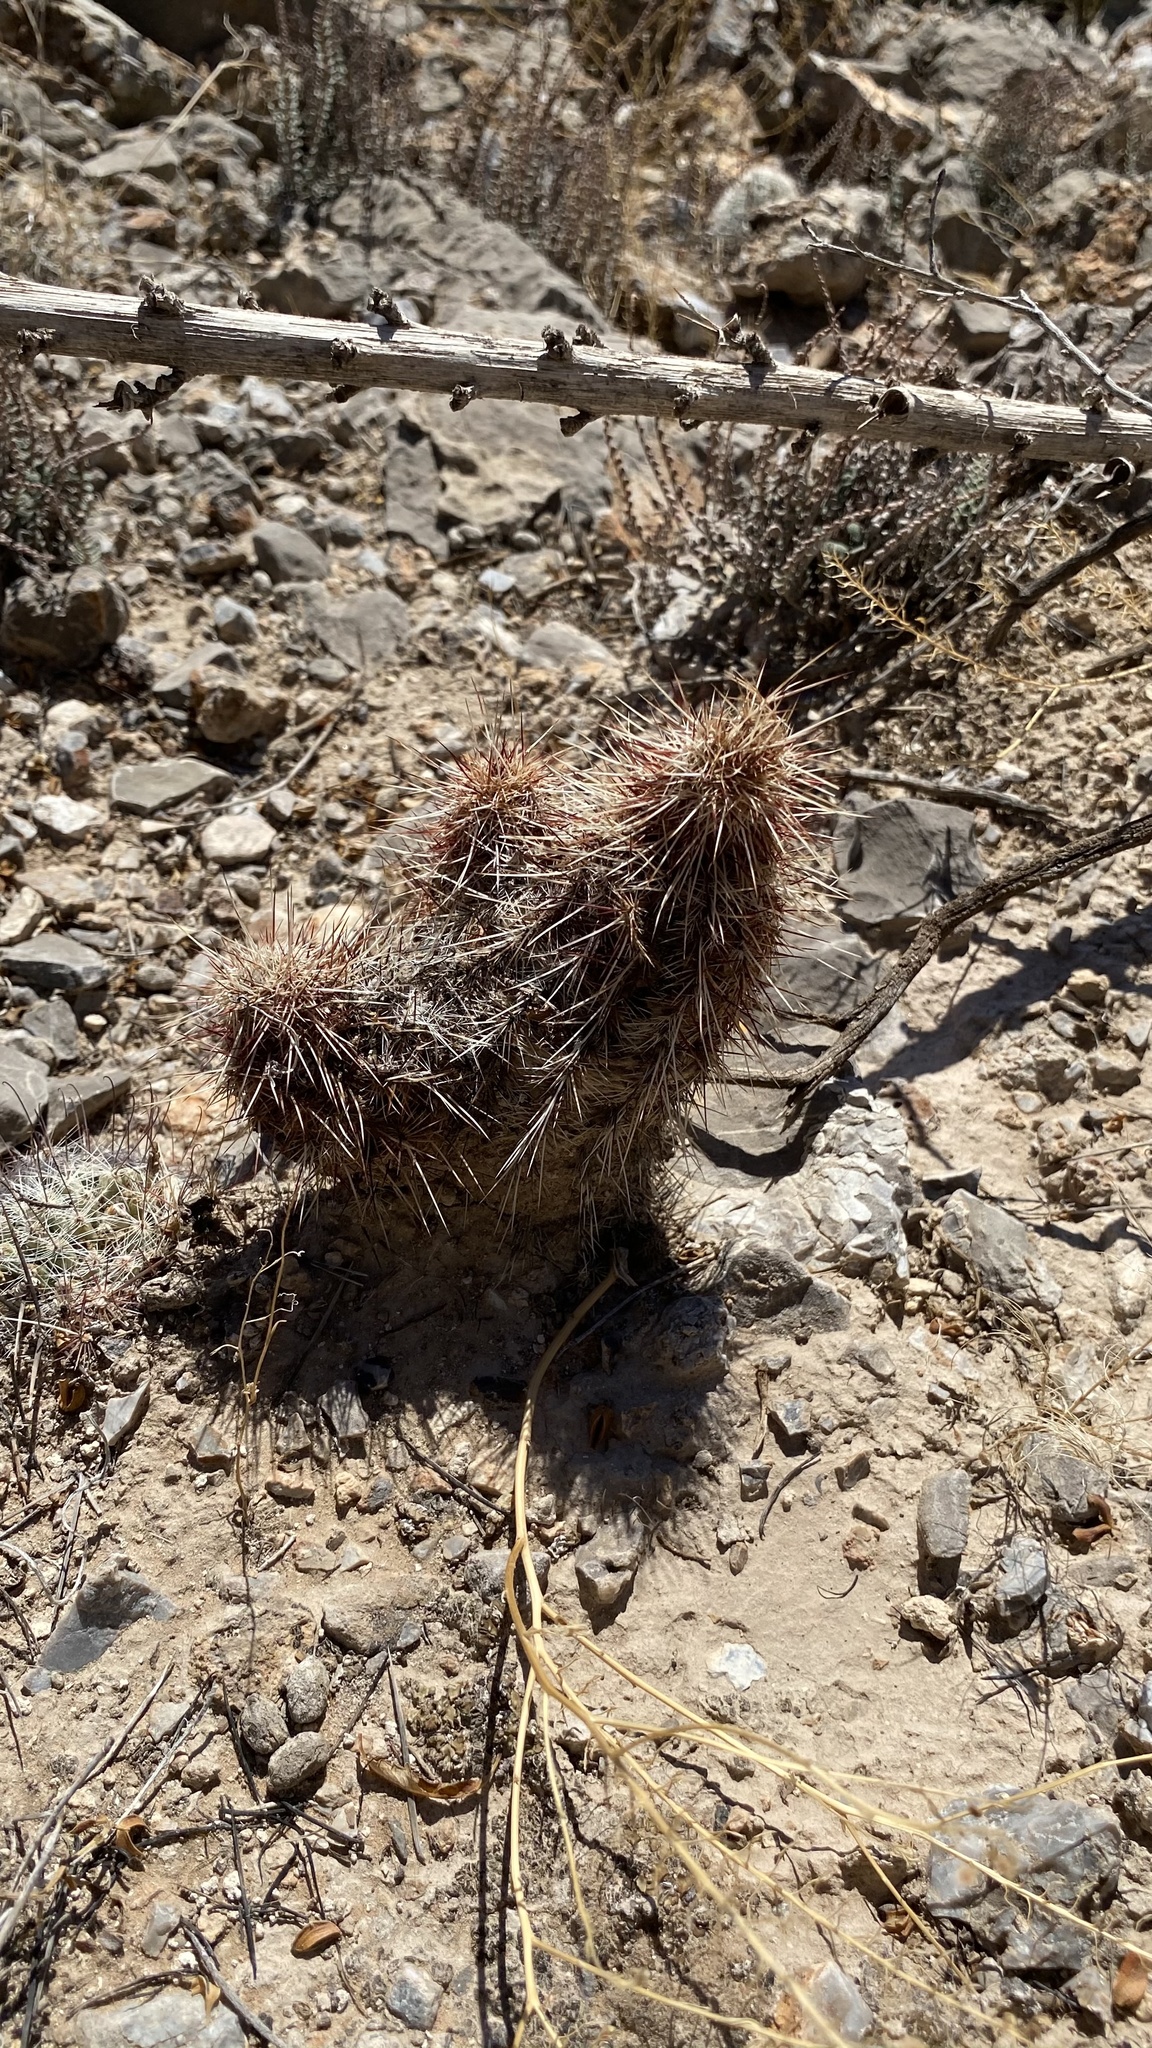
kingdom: Plantae
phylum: Tracheophyta
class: Magnoliopsida
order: Caryophyllales
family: Cactaceae
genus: Echinocereus
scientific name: Echinocereus viridiflorus
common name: Nylon hedgehog cactus
